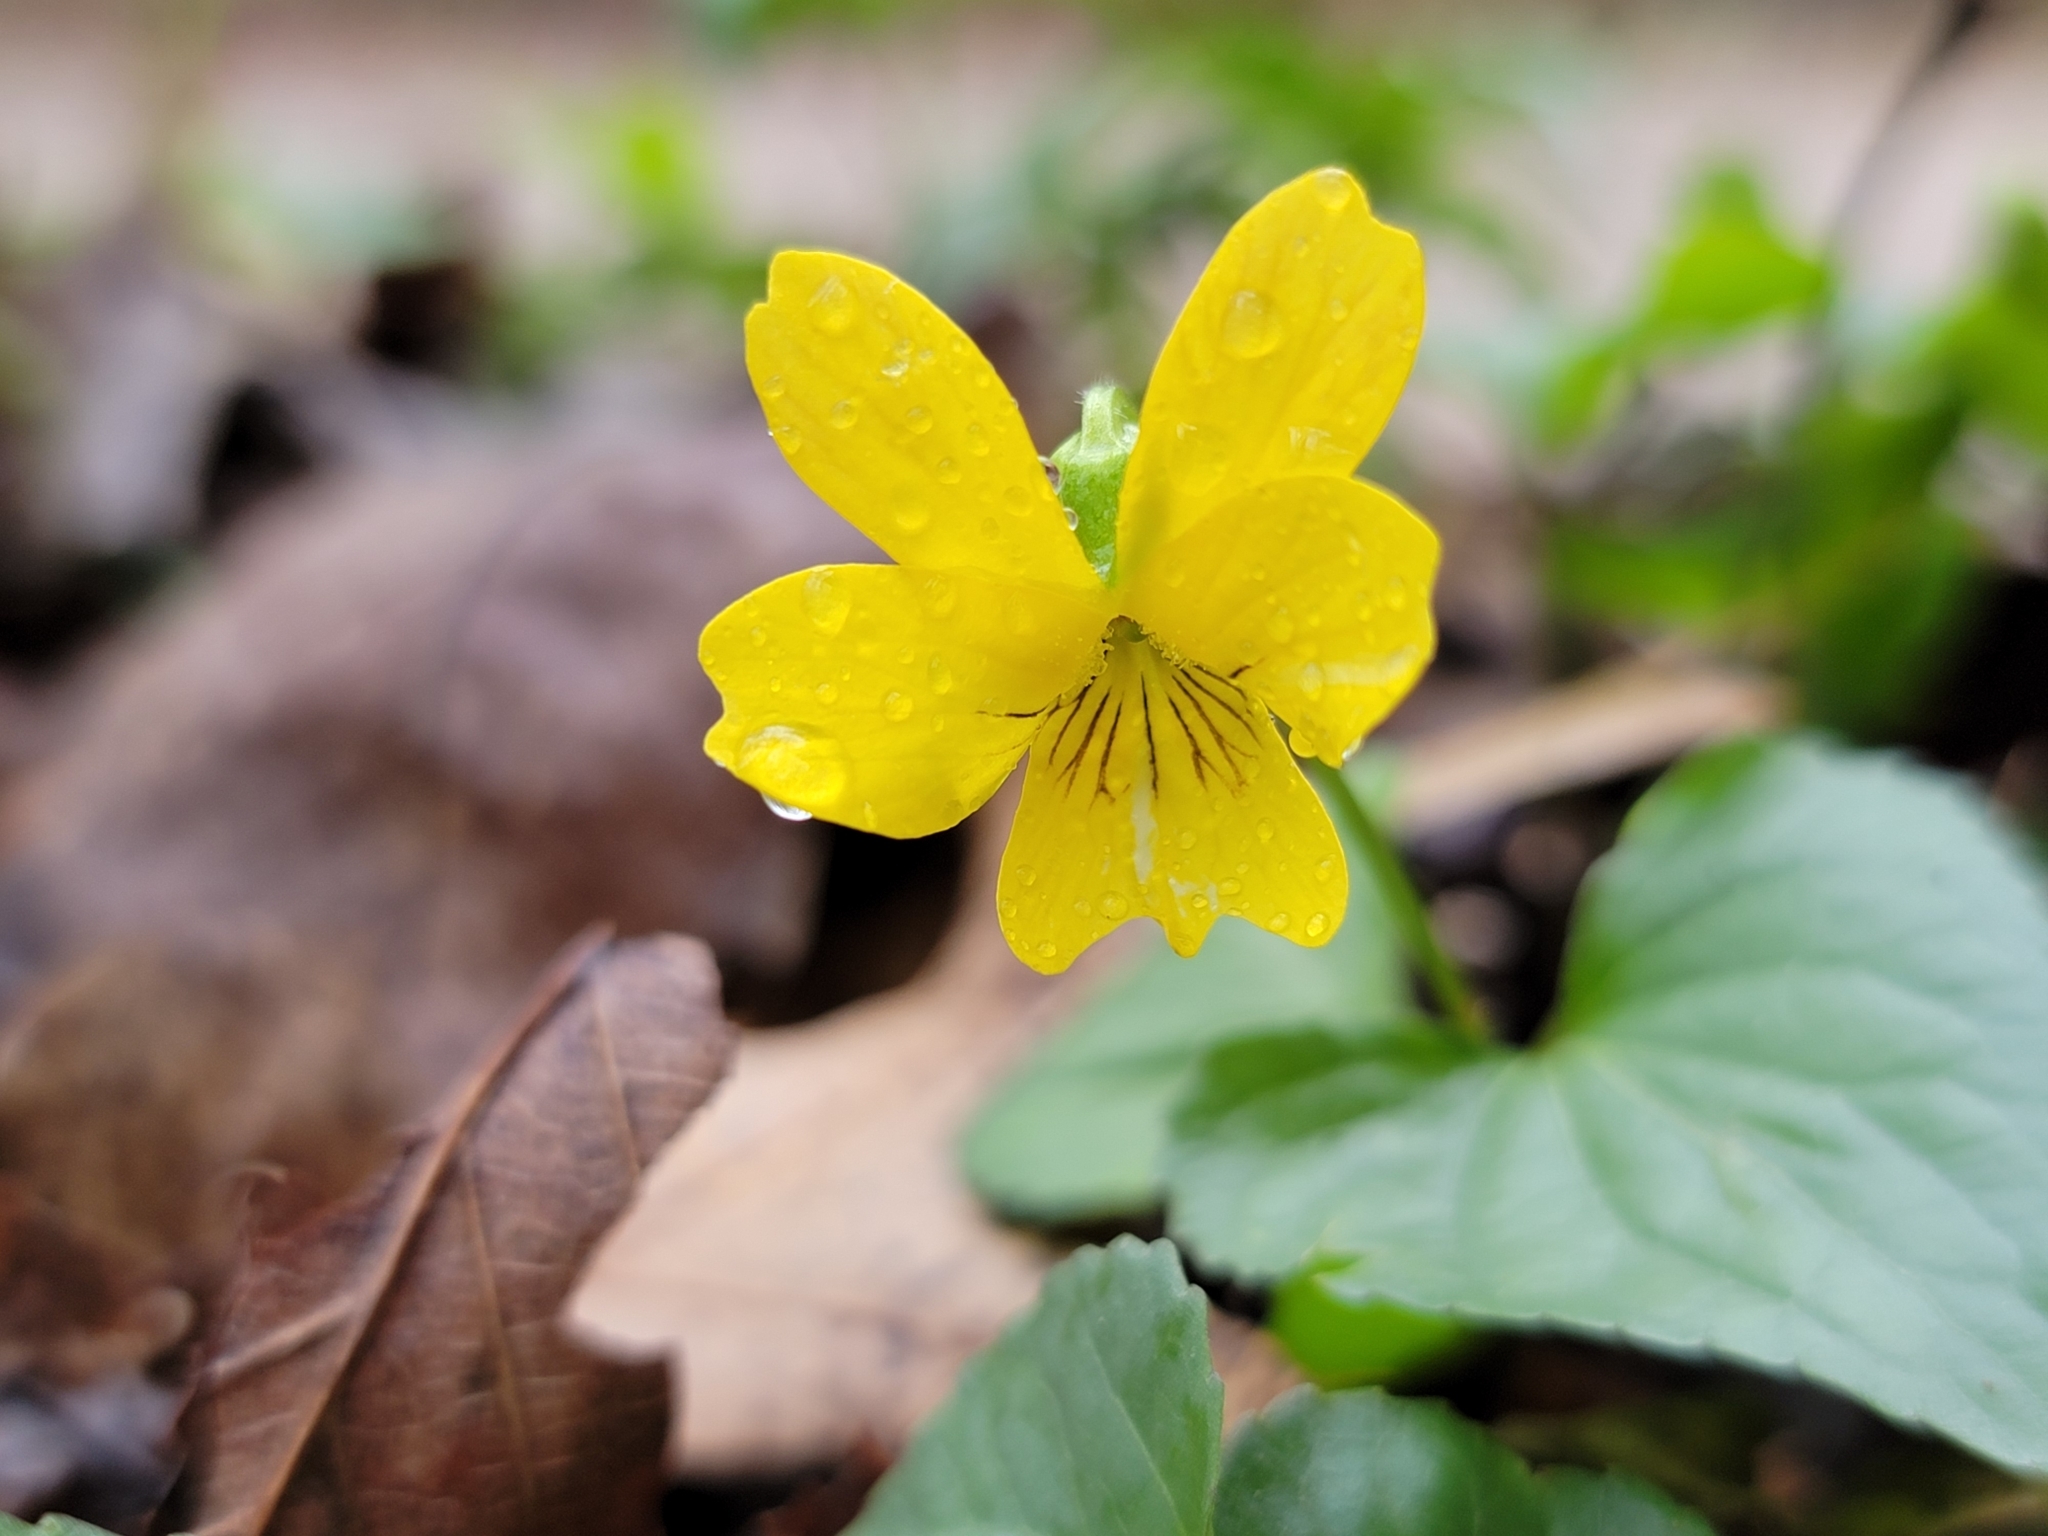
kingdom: Plantae
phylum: Tracheophyta
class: Magnoliopsida
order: Malpighiales
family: Violaceae
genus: Viola
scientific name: Viola eriocarpa
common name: Smooth yellow violet
